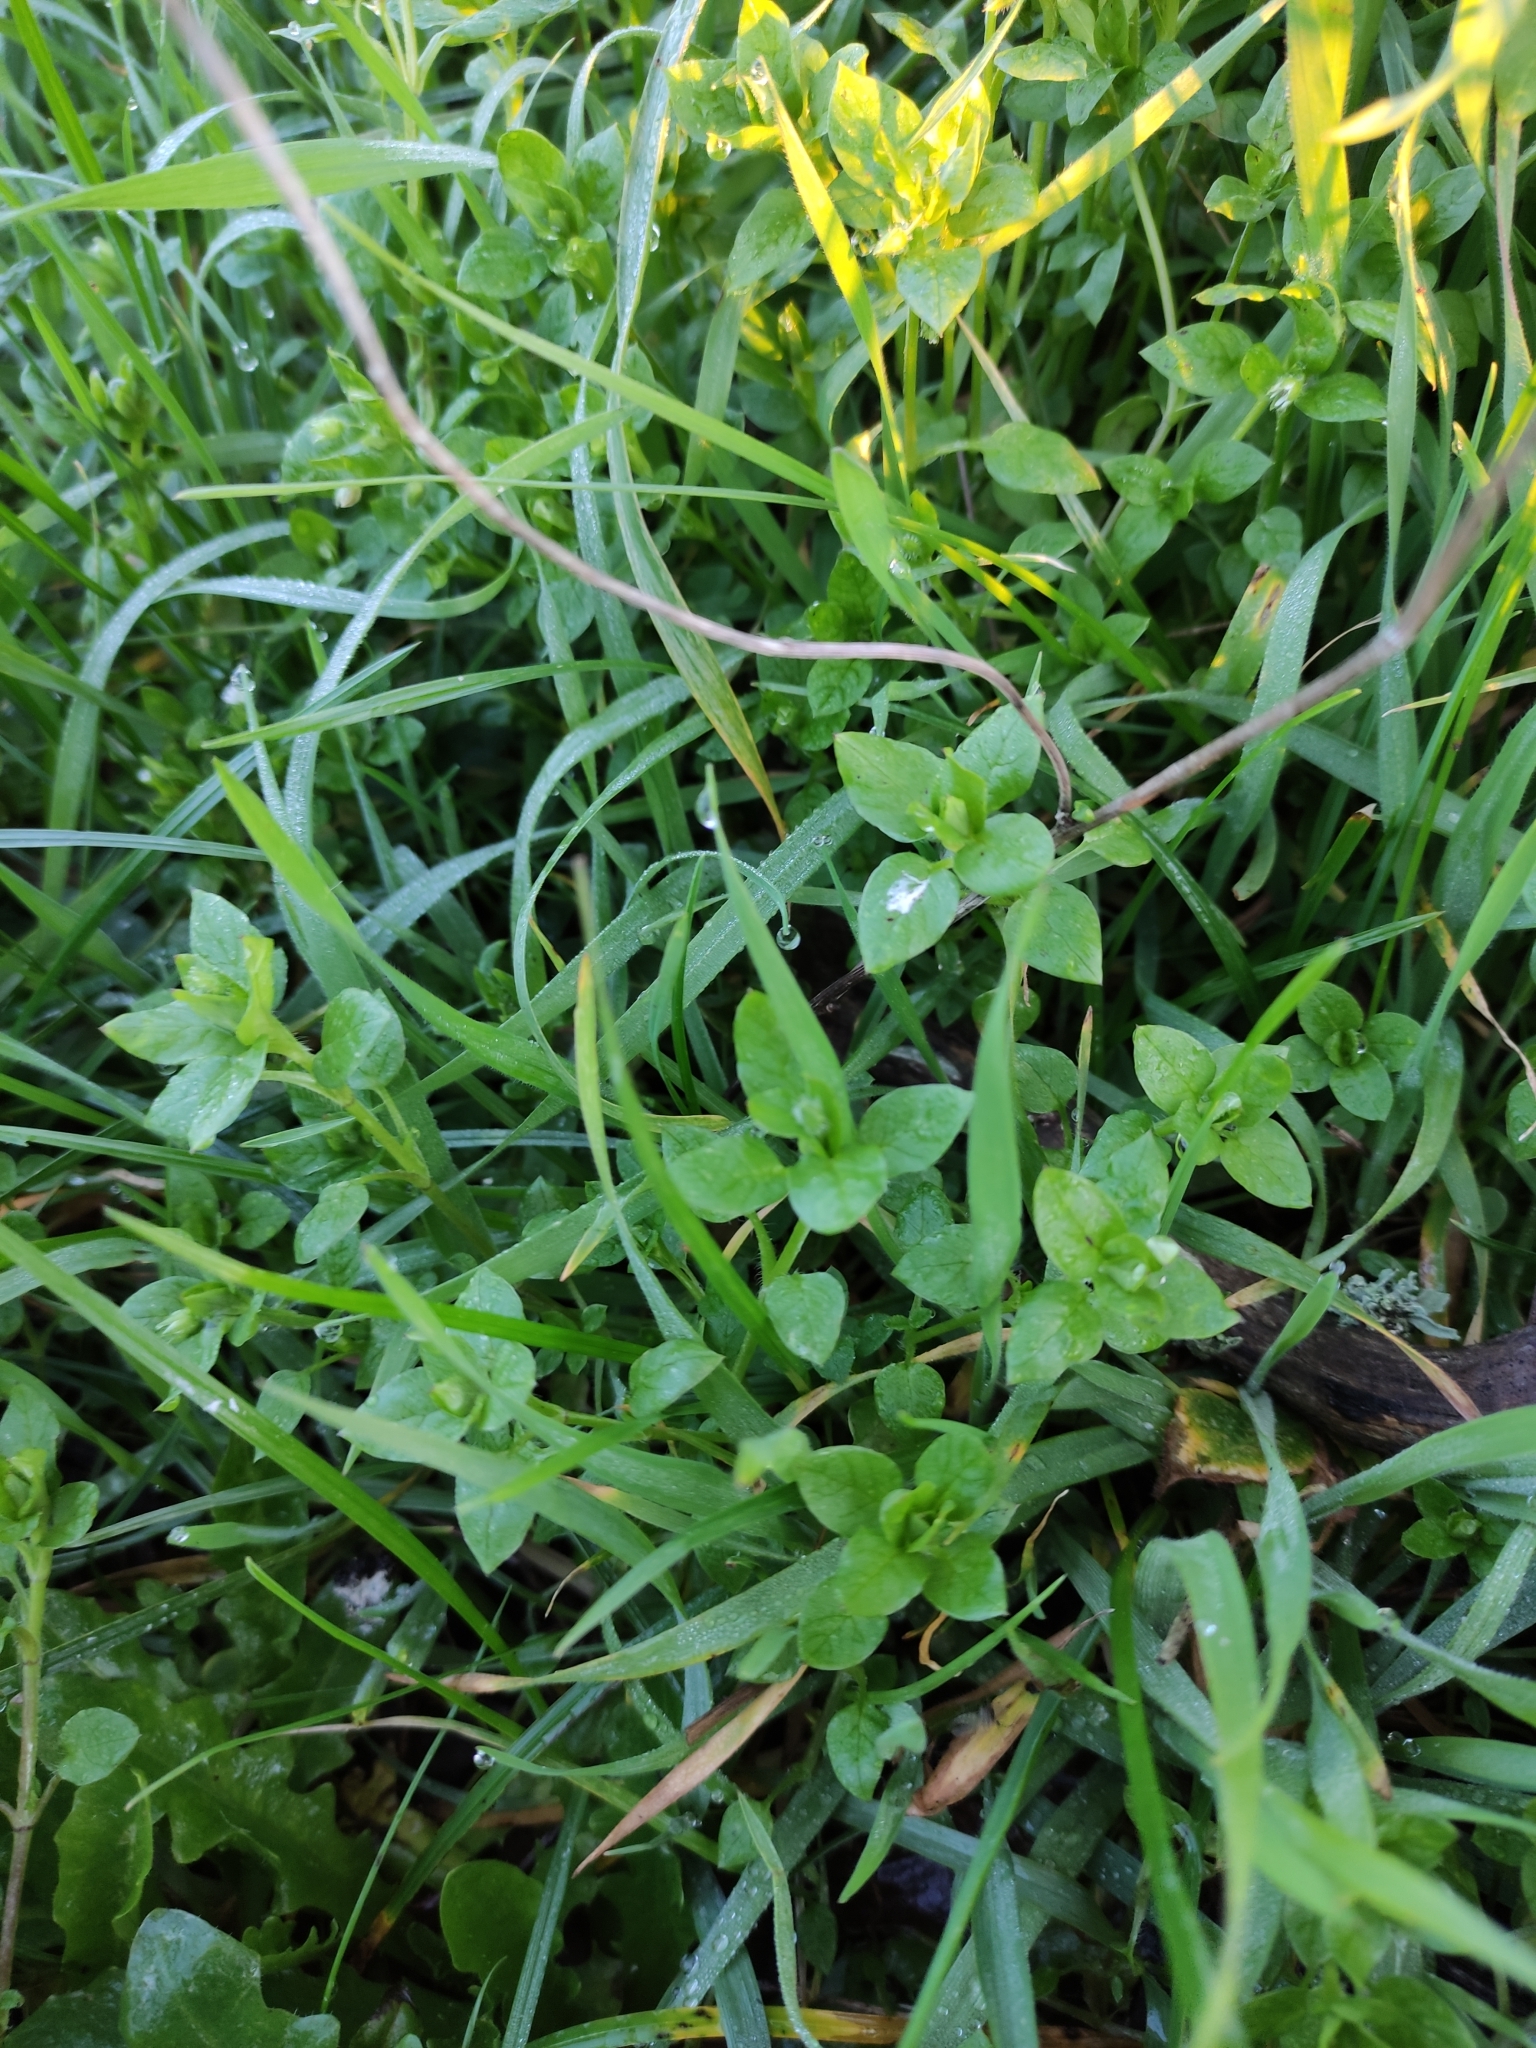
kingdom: Plantae
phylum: Tracheophyta
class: Magnoliopsida
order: Caryophyllales
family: Caryophyllaceae
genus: Stellaria
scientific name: Stellaria media
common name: Common chickweed
